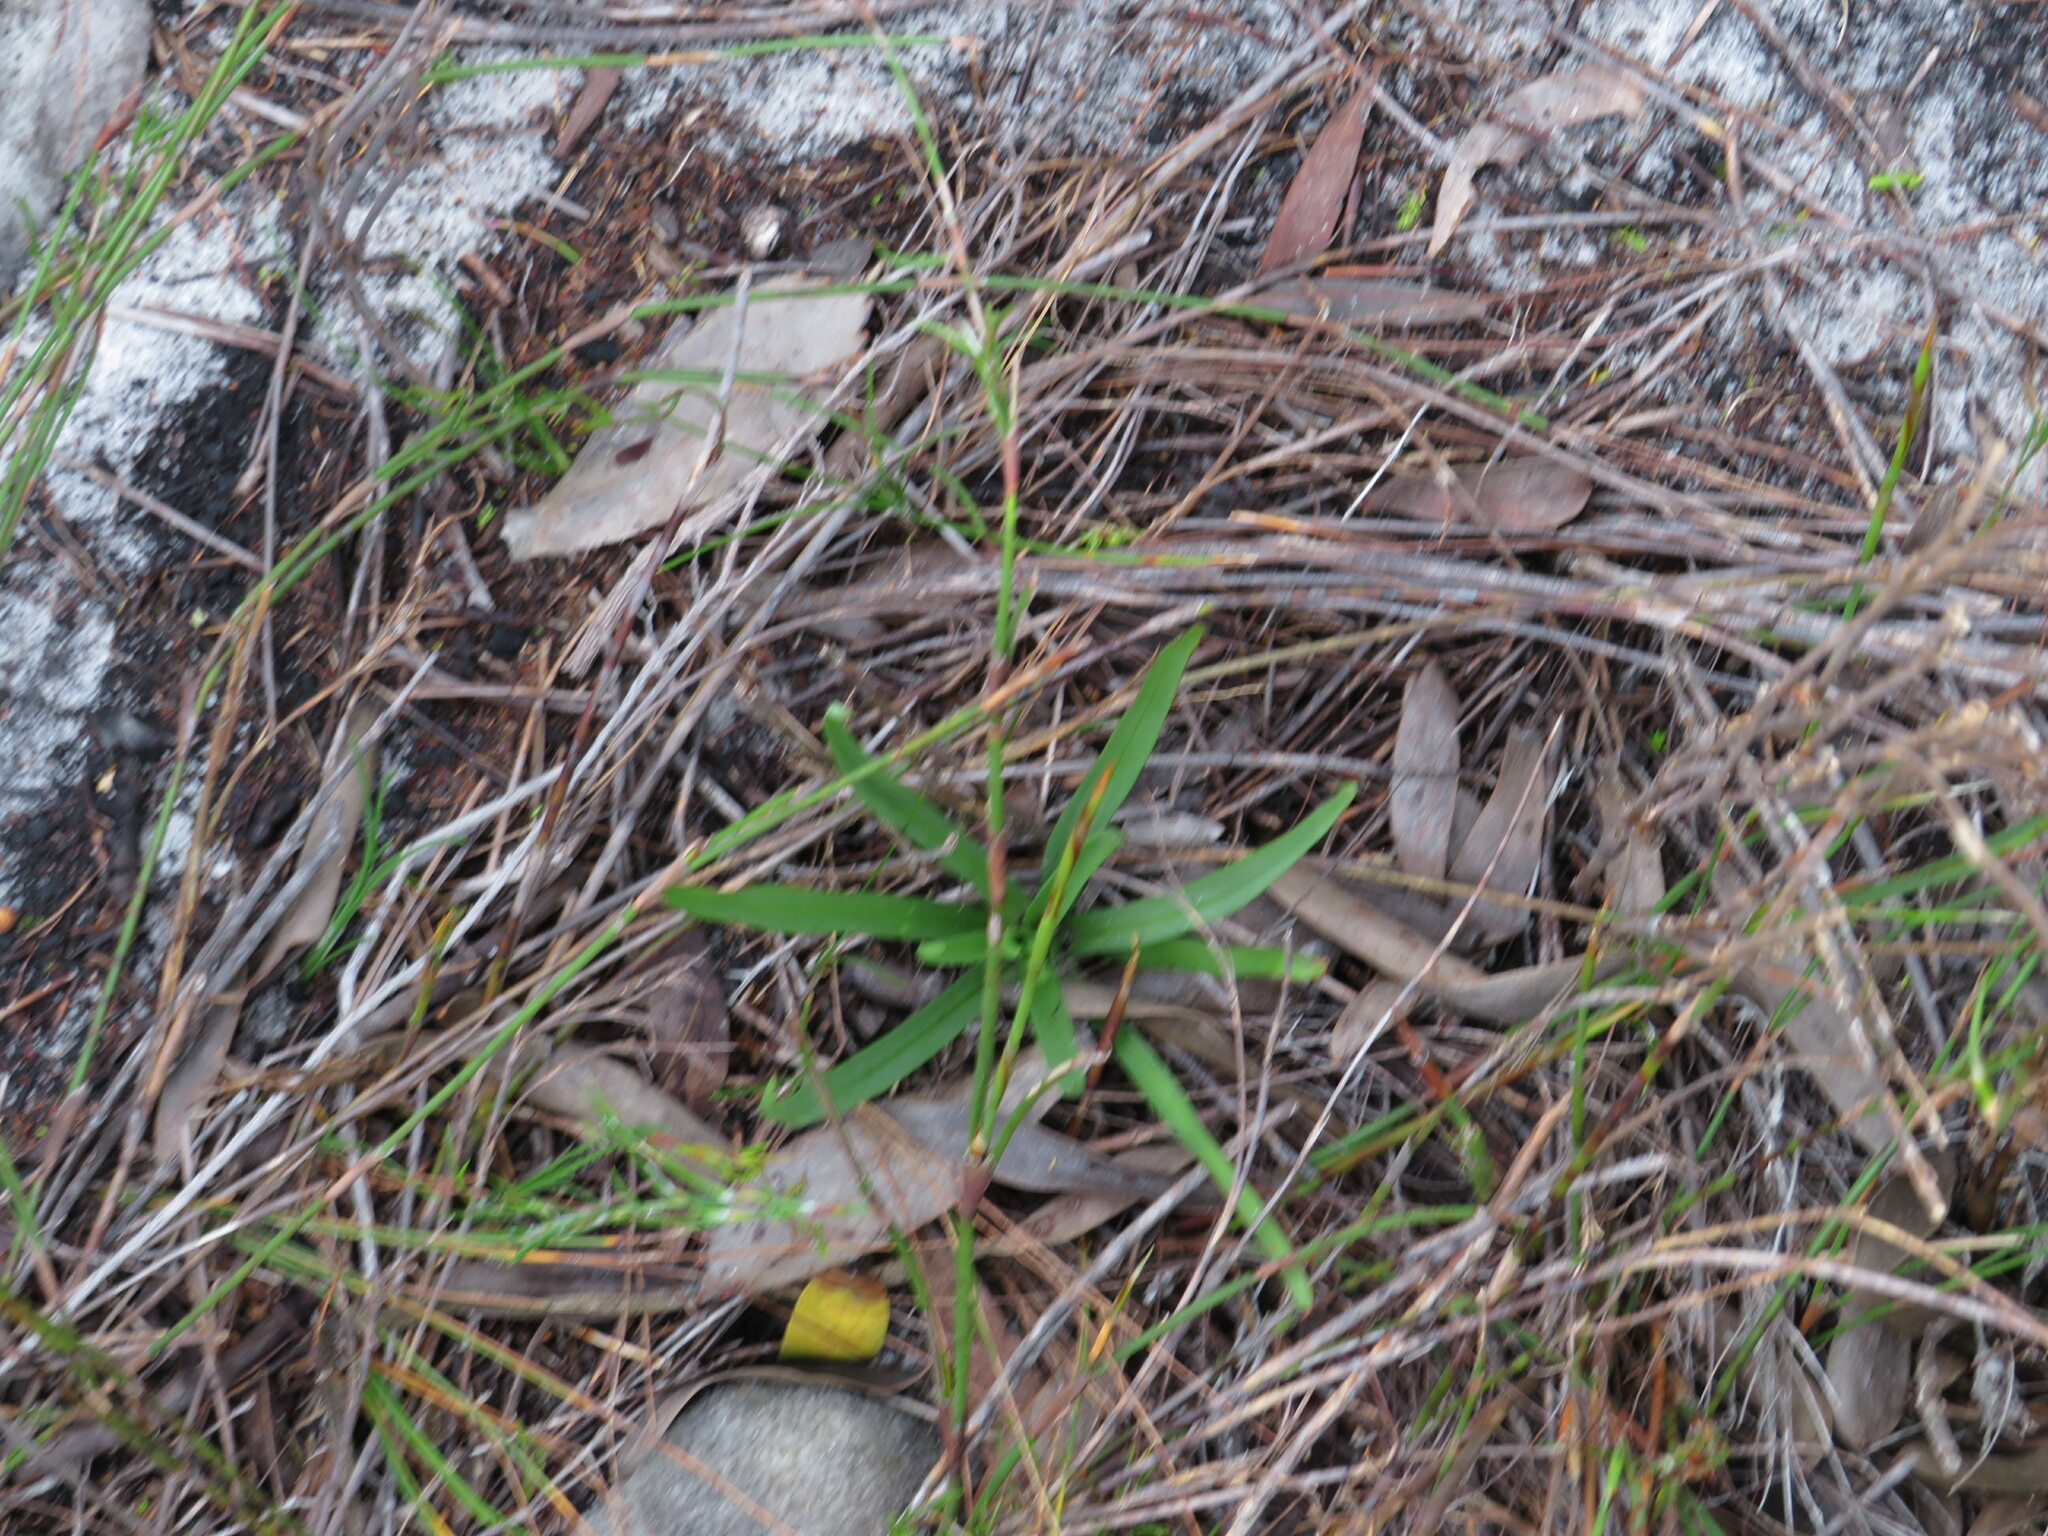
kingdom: Plantae
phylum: Tracheophyta
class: Liliopsida
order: Asparagales
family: Orchidaceae
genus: Disa
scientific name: Disa bracteata
